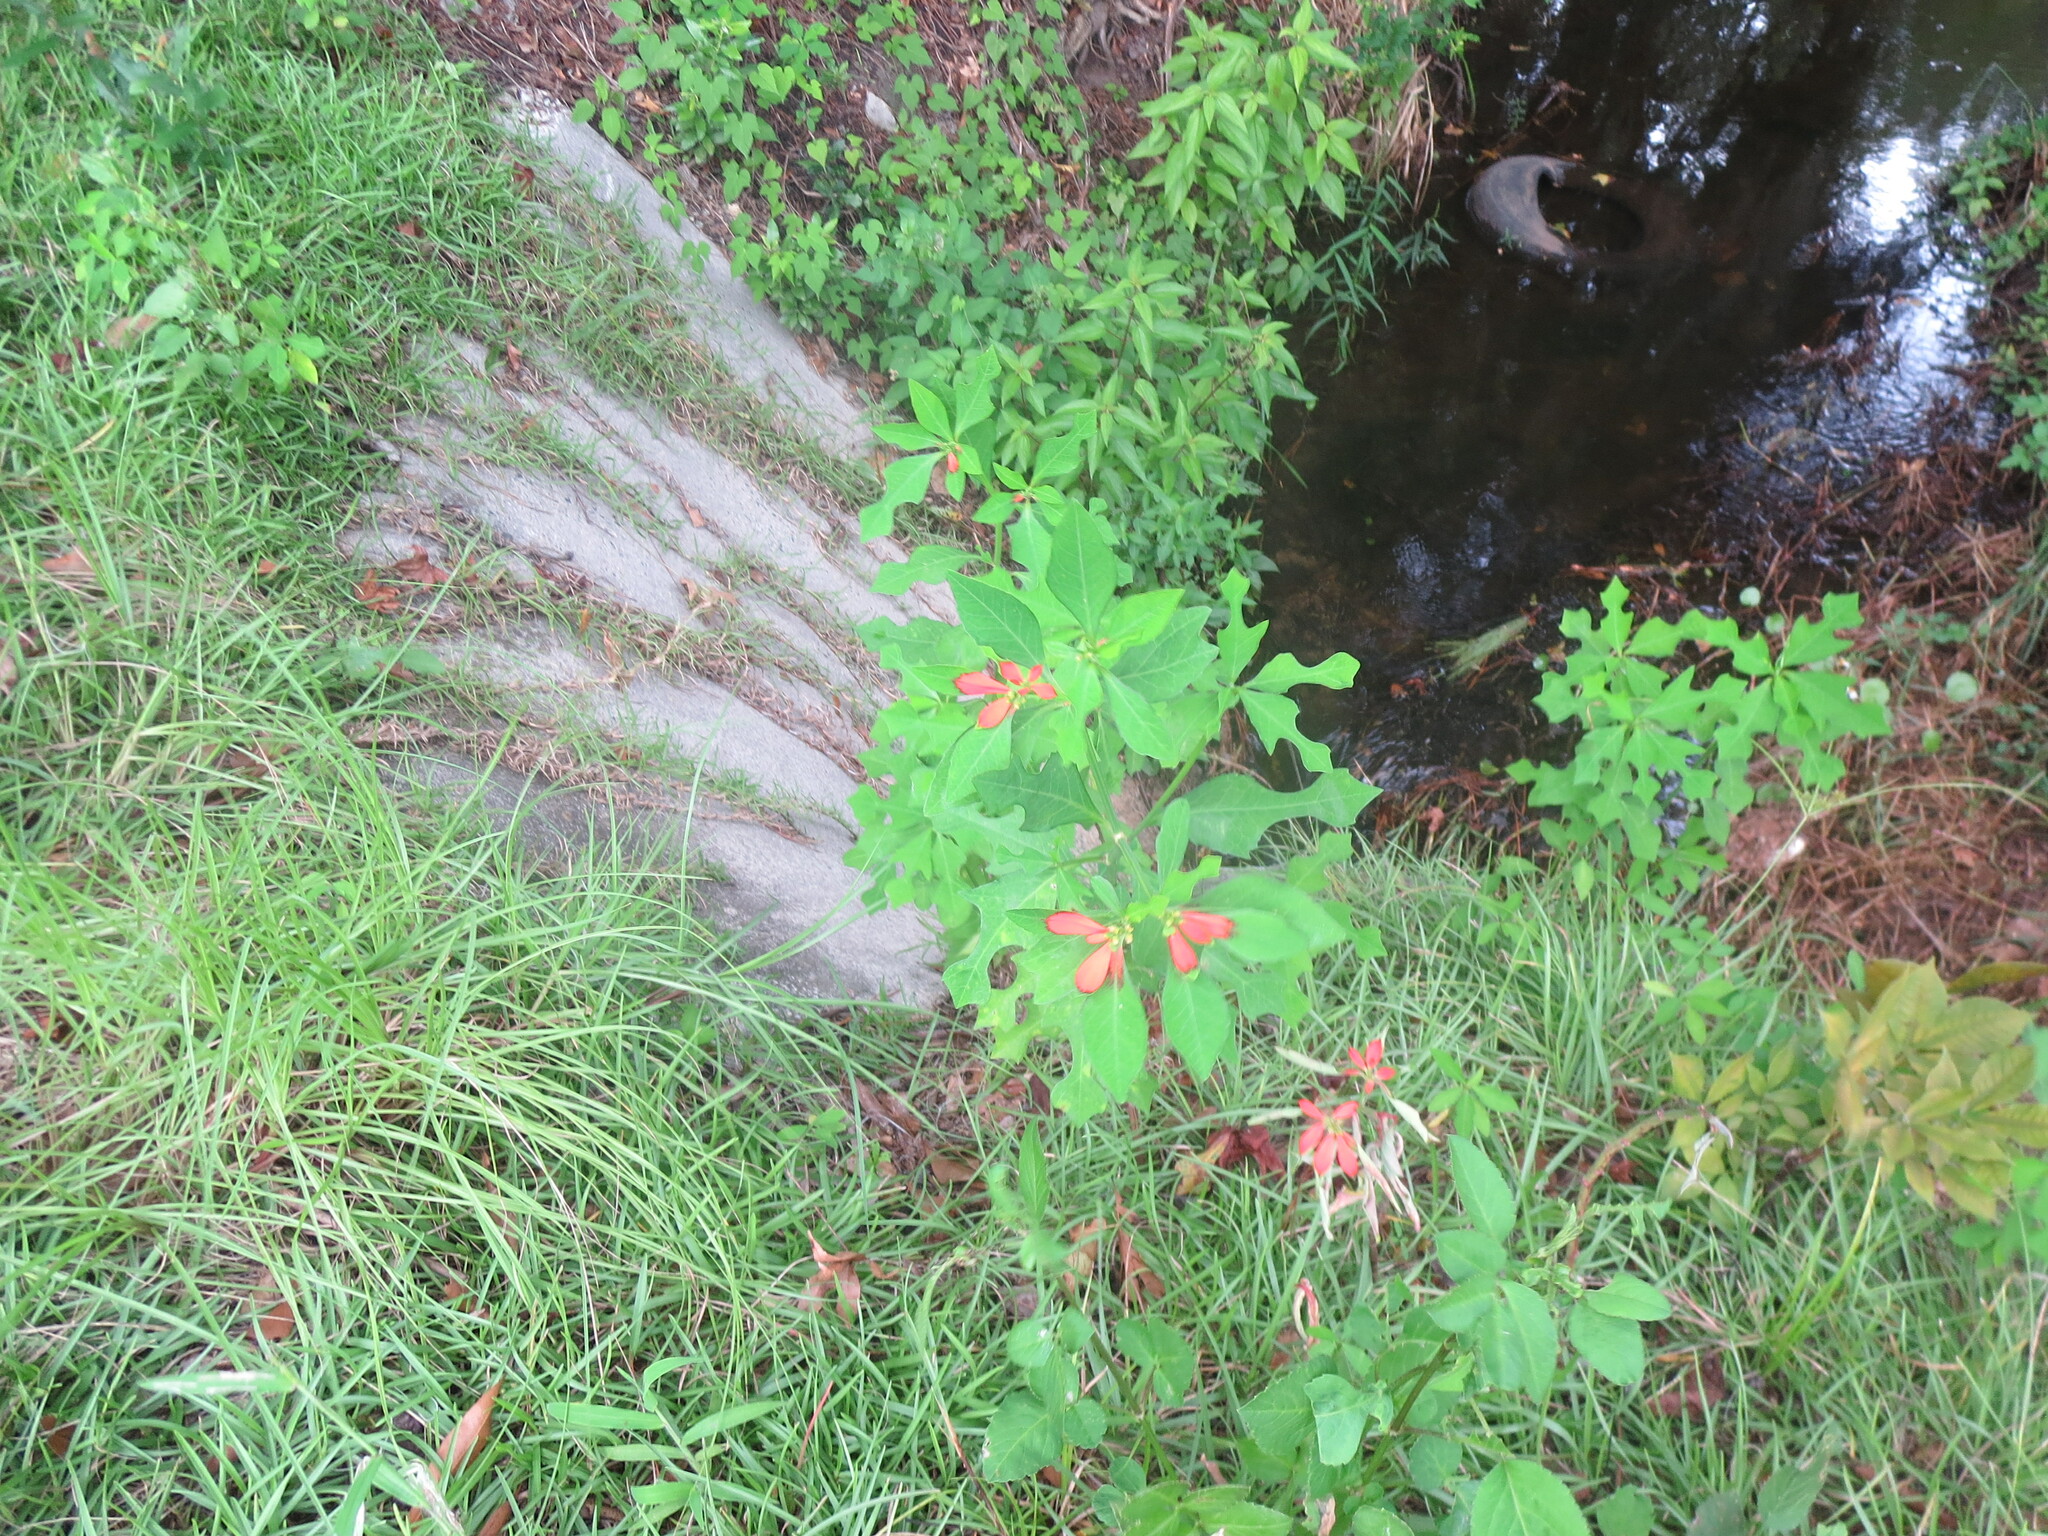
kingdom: Plantae
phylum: Tracheophyta
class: Magnoliopsida
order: Malpighiales
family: Euphorbiaceae
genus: Euphorbia
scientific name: Euphorbia heterophylla
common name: Mexican fireplant
